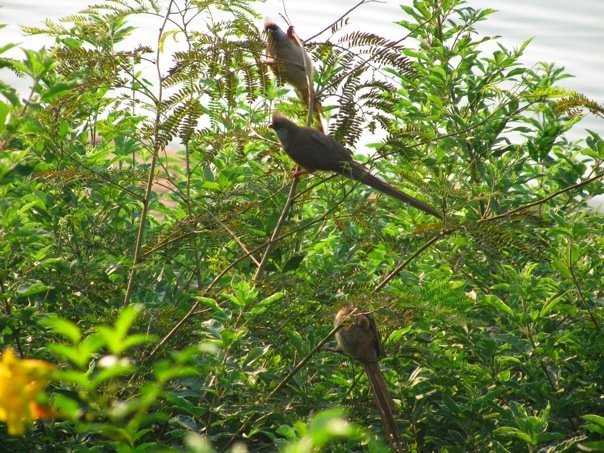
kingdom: Animalia
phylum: Chordata
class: Aves
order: Coliiformes
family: Coliidae
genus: Colius
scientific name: Colius striatus
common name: Speckled mousebird
